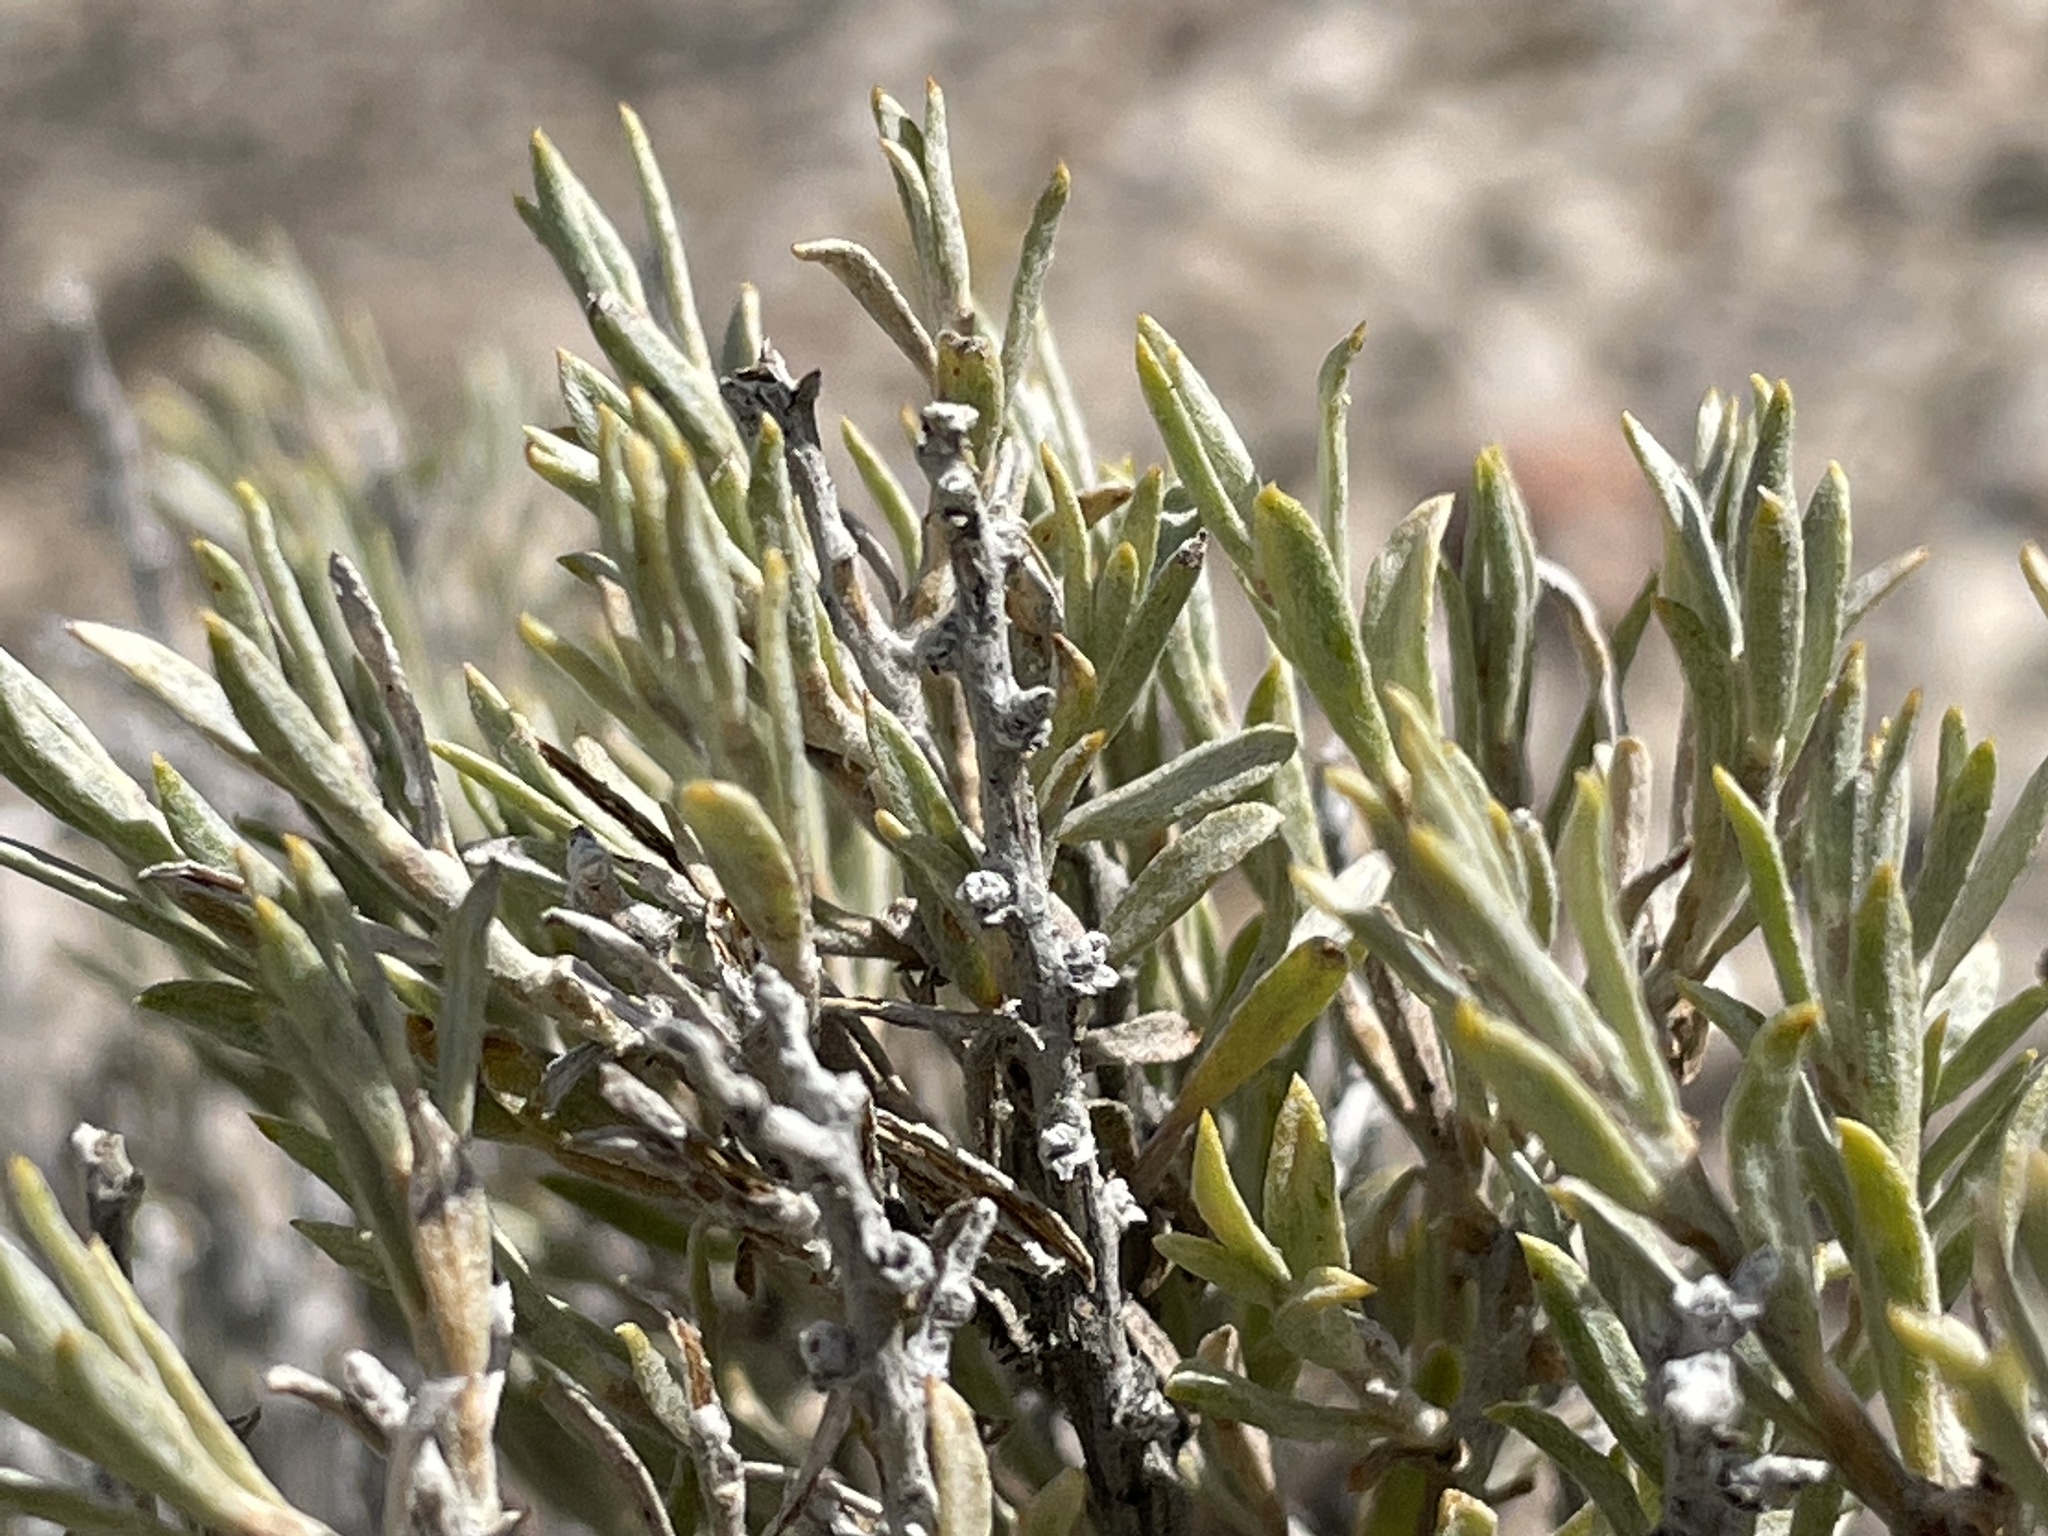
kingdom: Plantae
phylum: Tracheophyta
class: Magnoliopsida
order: Asterales
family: Asteraceae
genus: Tetradymia
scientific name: Tetradymia canescens
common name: Spineless horsebrush
